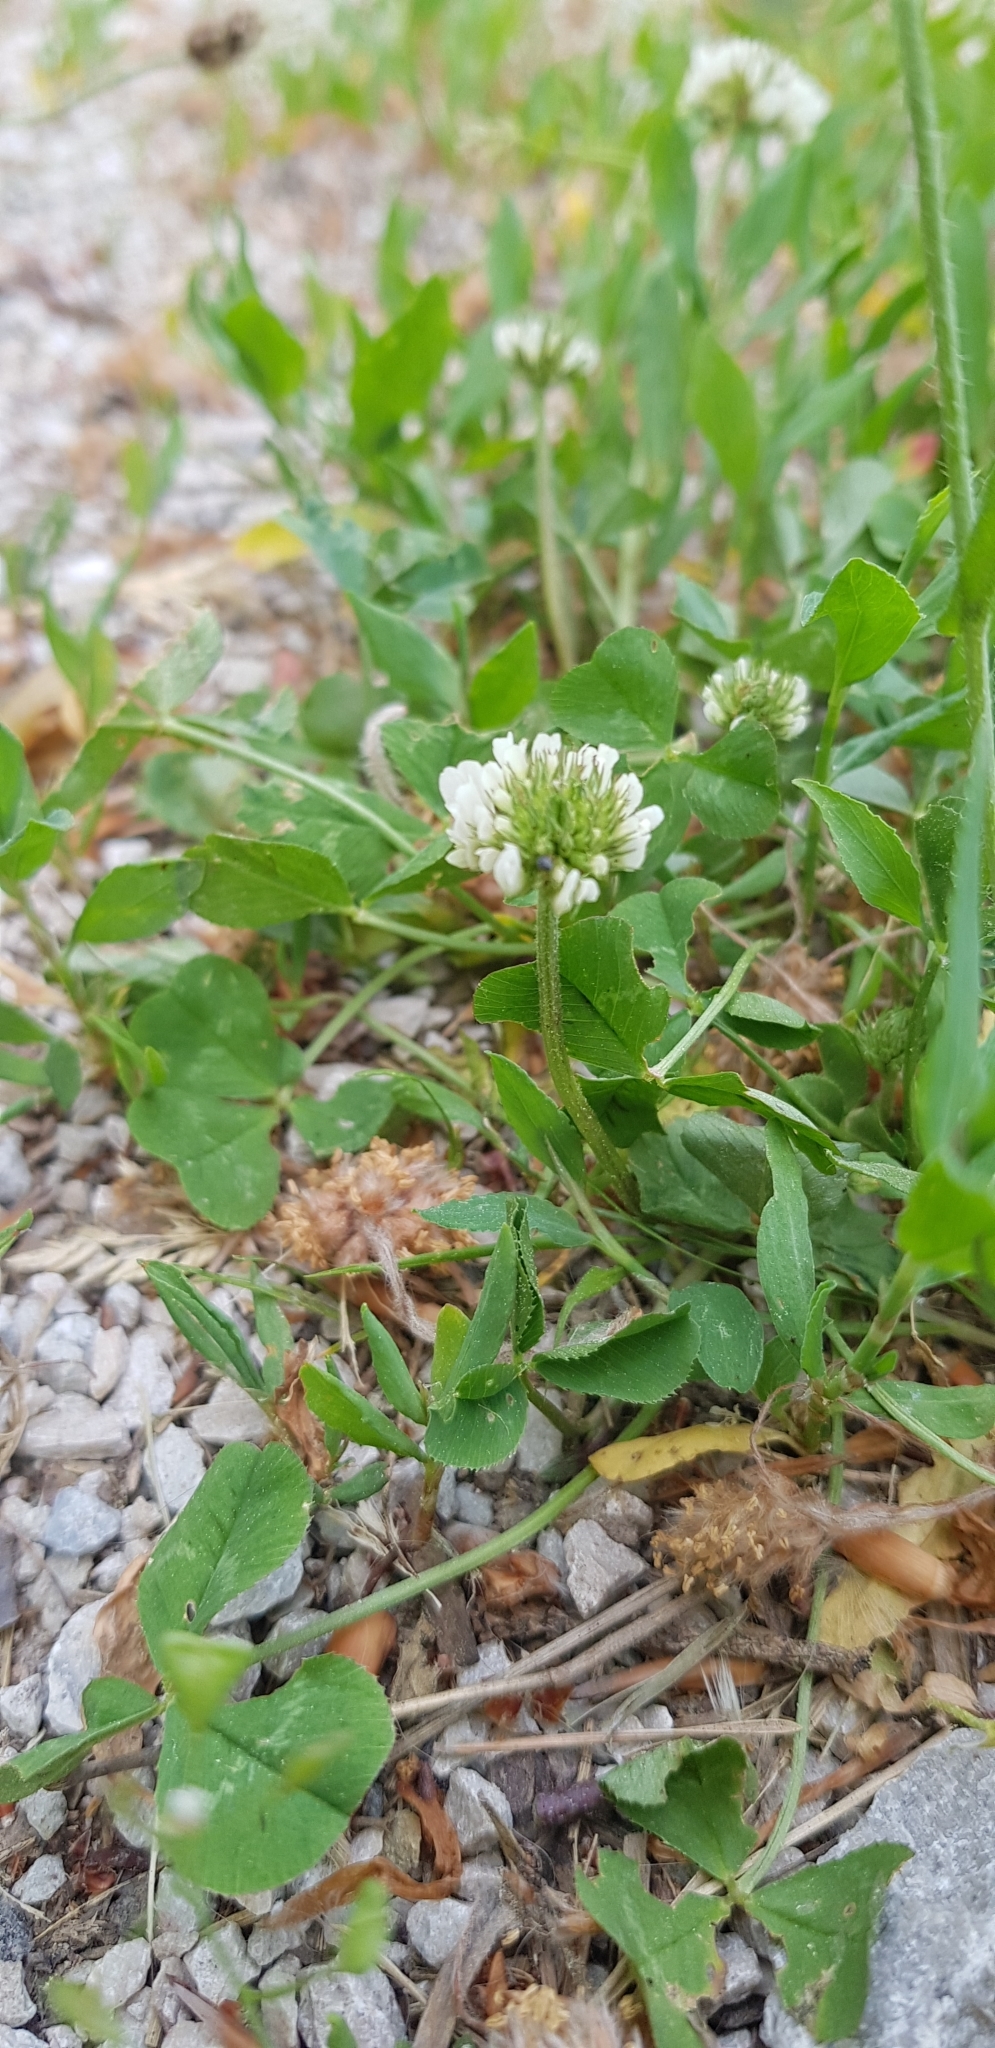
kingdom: Plantae
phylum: Tracheophyta
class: Magnoliopsida
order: Fabales
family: Fabaceae
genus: Trifolium
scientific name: Trifolium repens
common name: White clover
